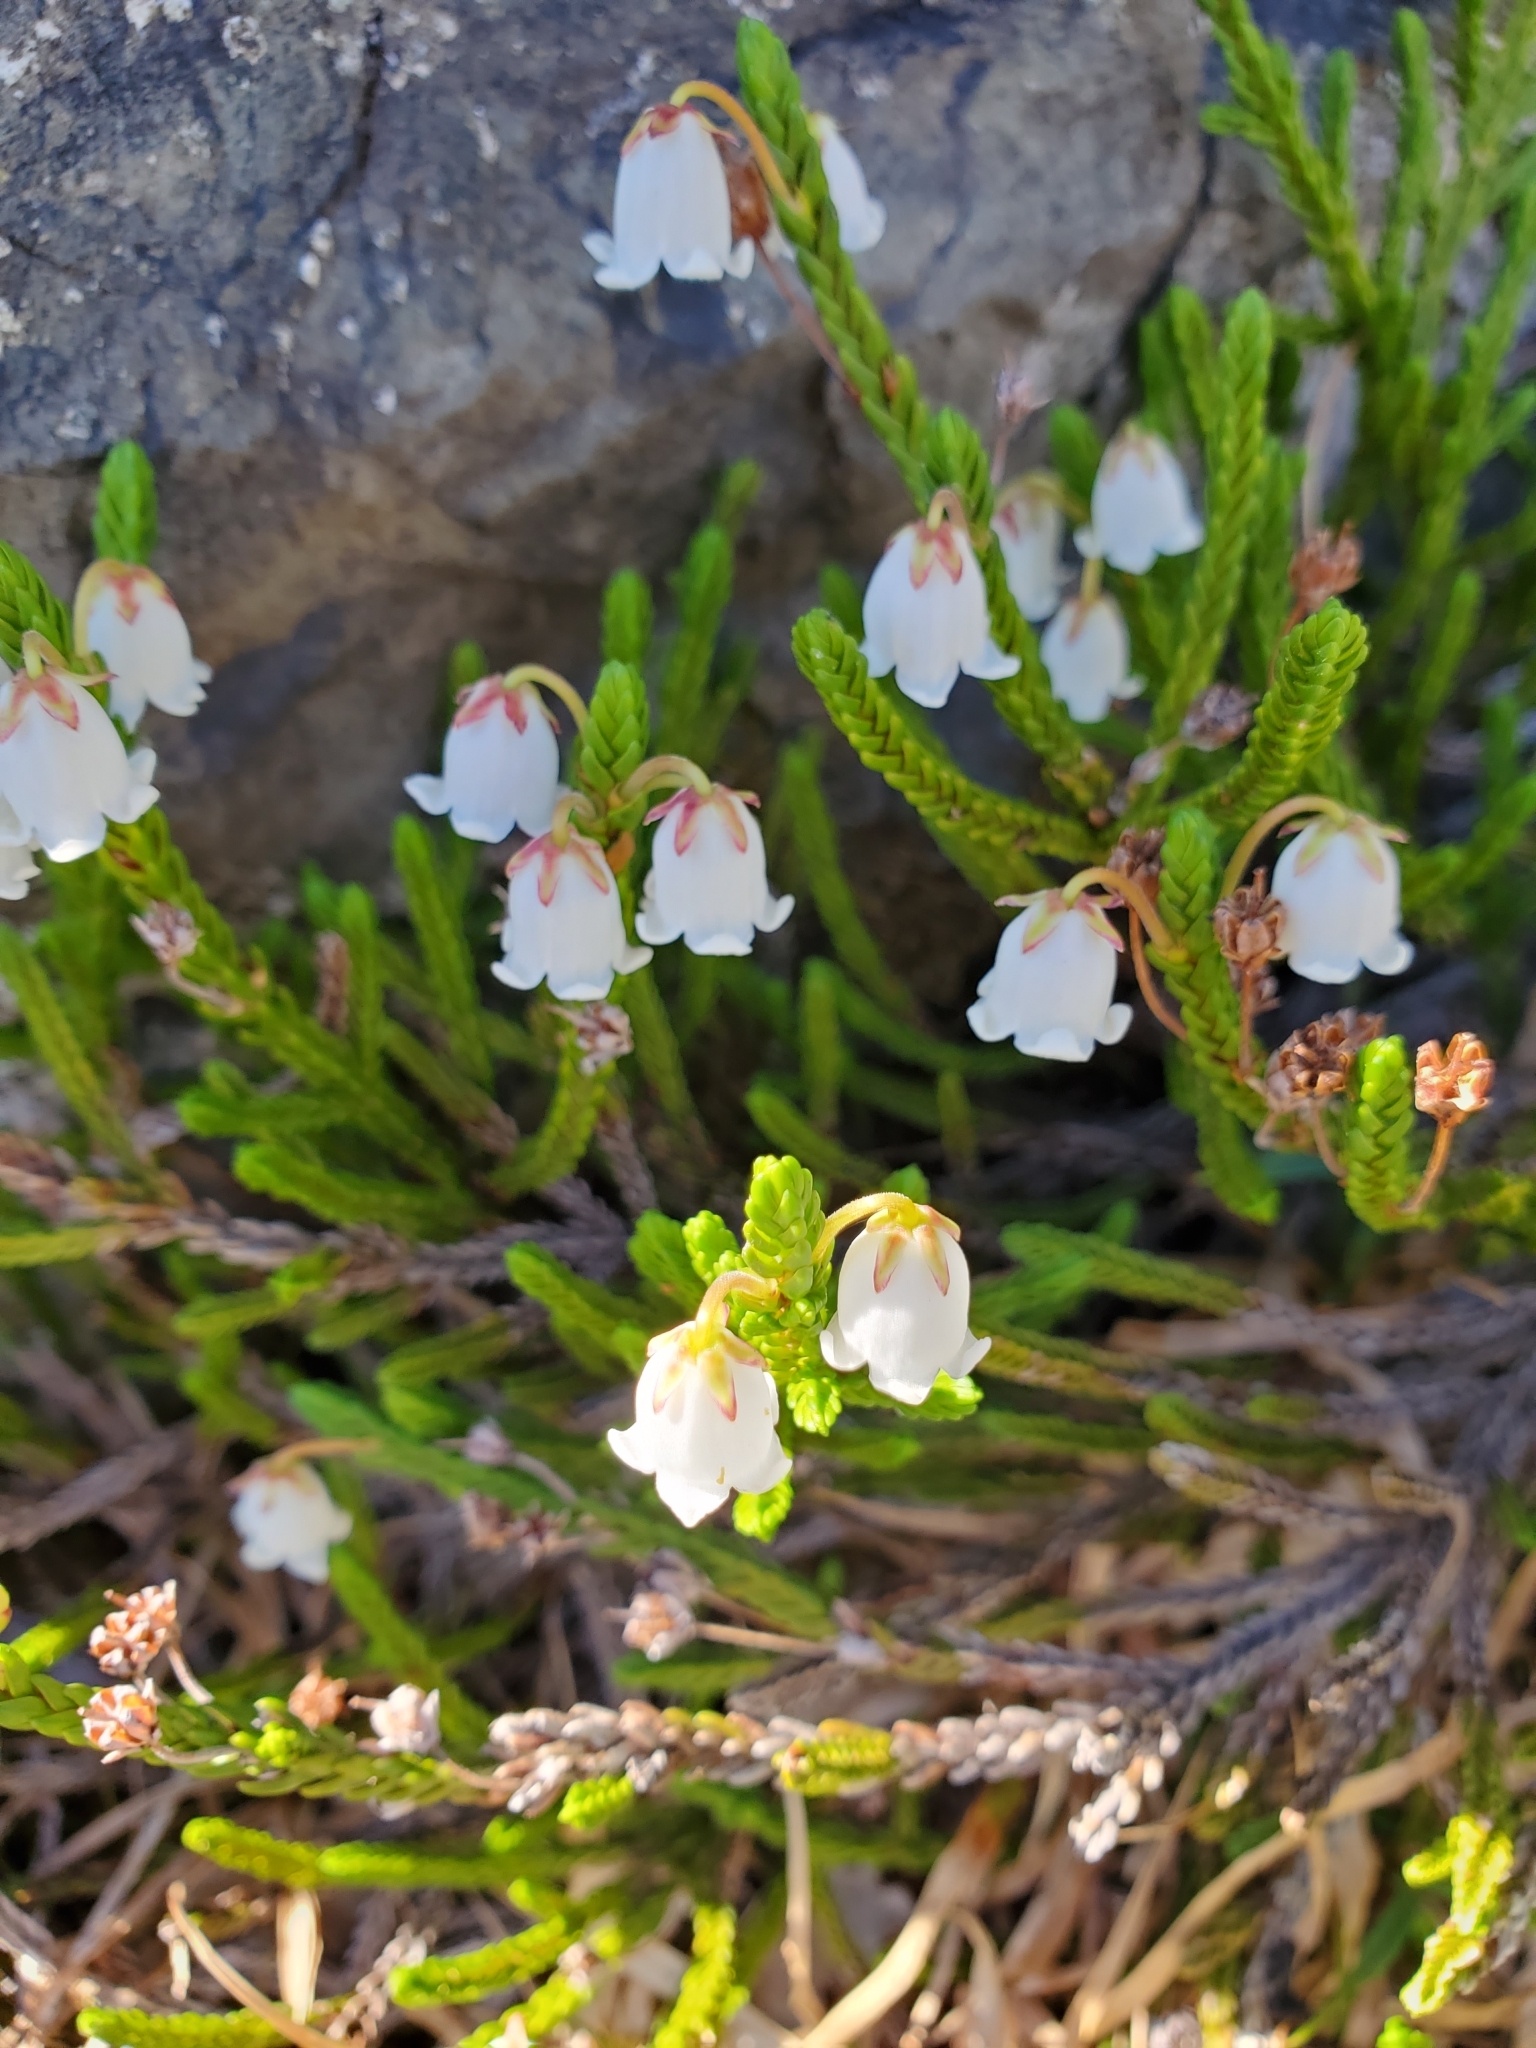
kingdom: Plantae
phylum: Tracheophyta
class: Magnoliopsida
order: Ericales
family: Ericaceae
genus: Cassiope
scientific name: Cassiope mertensiana
